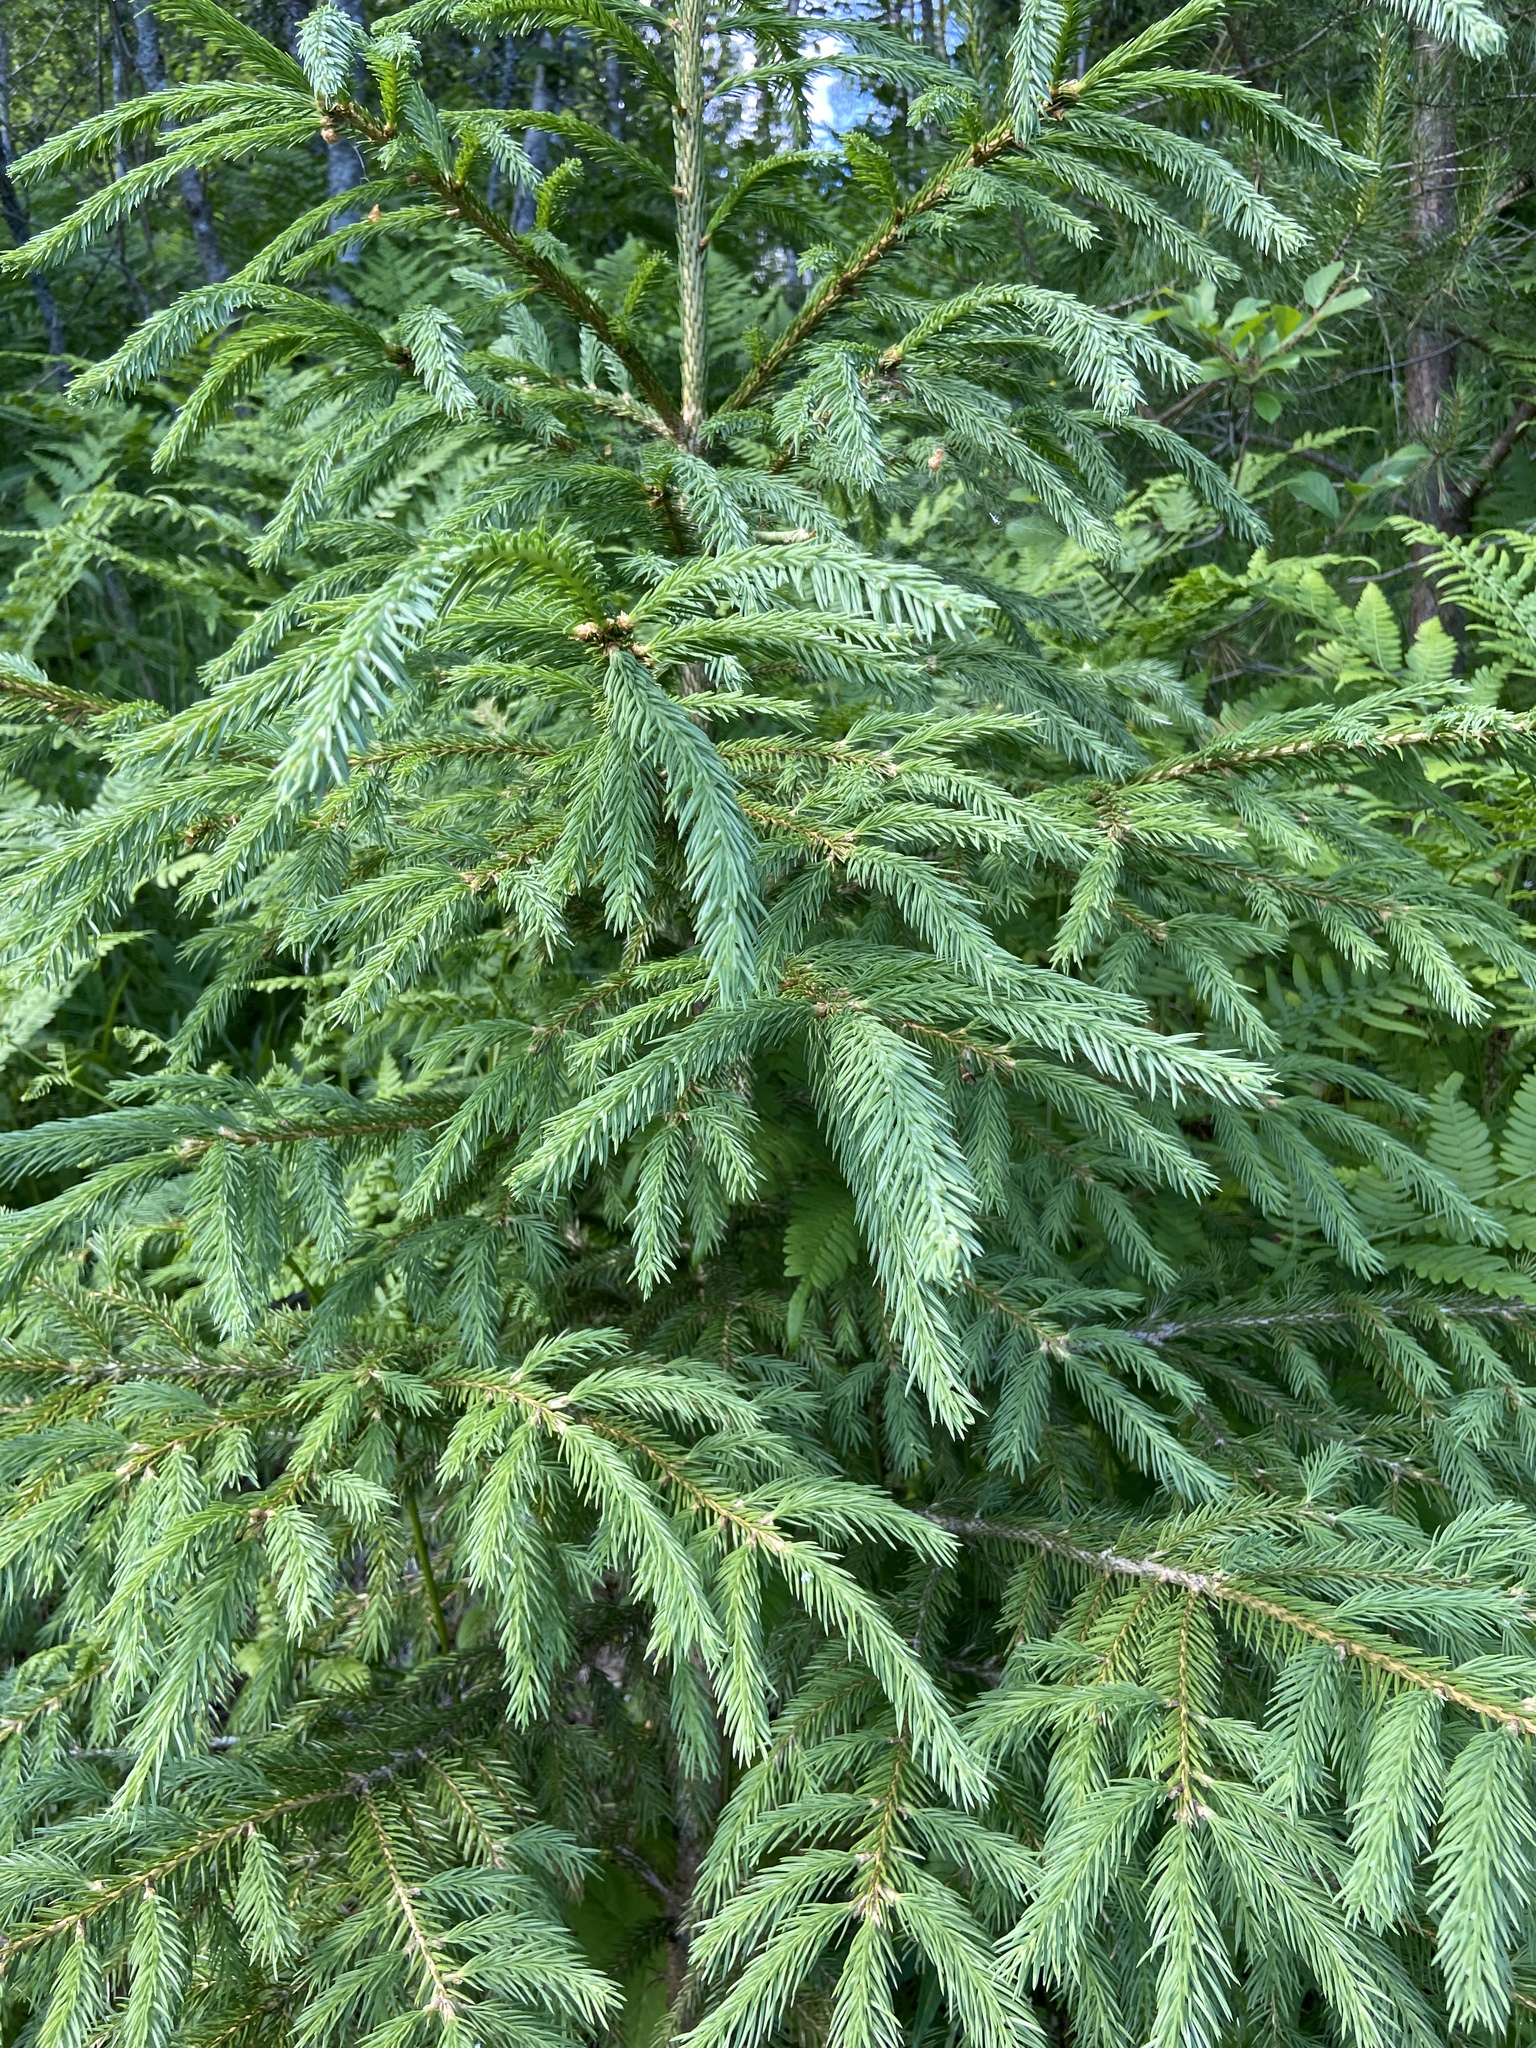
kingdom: Plantae
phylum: Tracheophyta
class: Pinopsida
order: Pinales
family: Pinaceae
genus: Picea
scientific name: Picea abies
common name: Norway spruce
